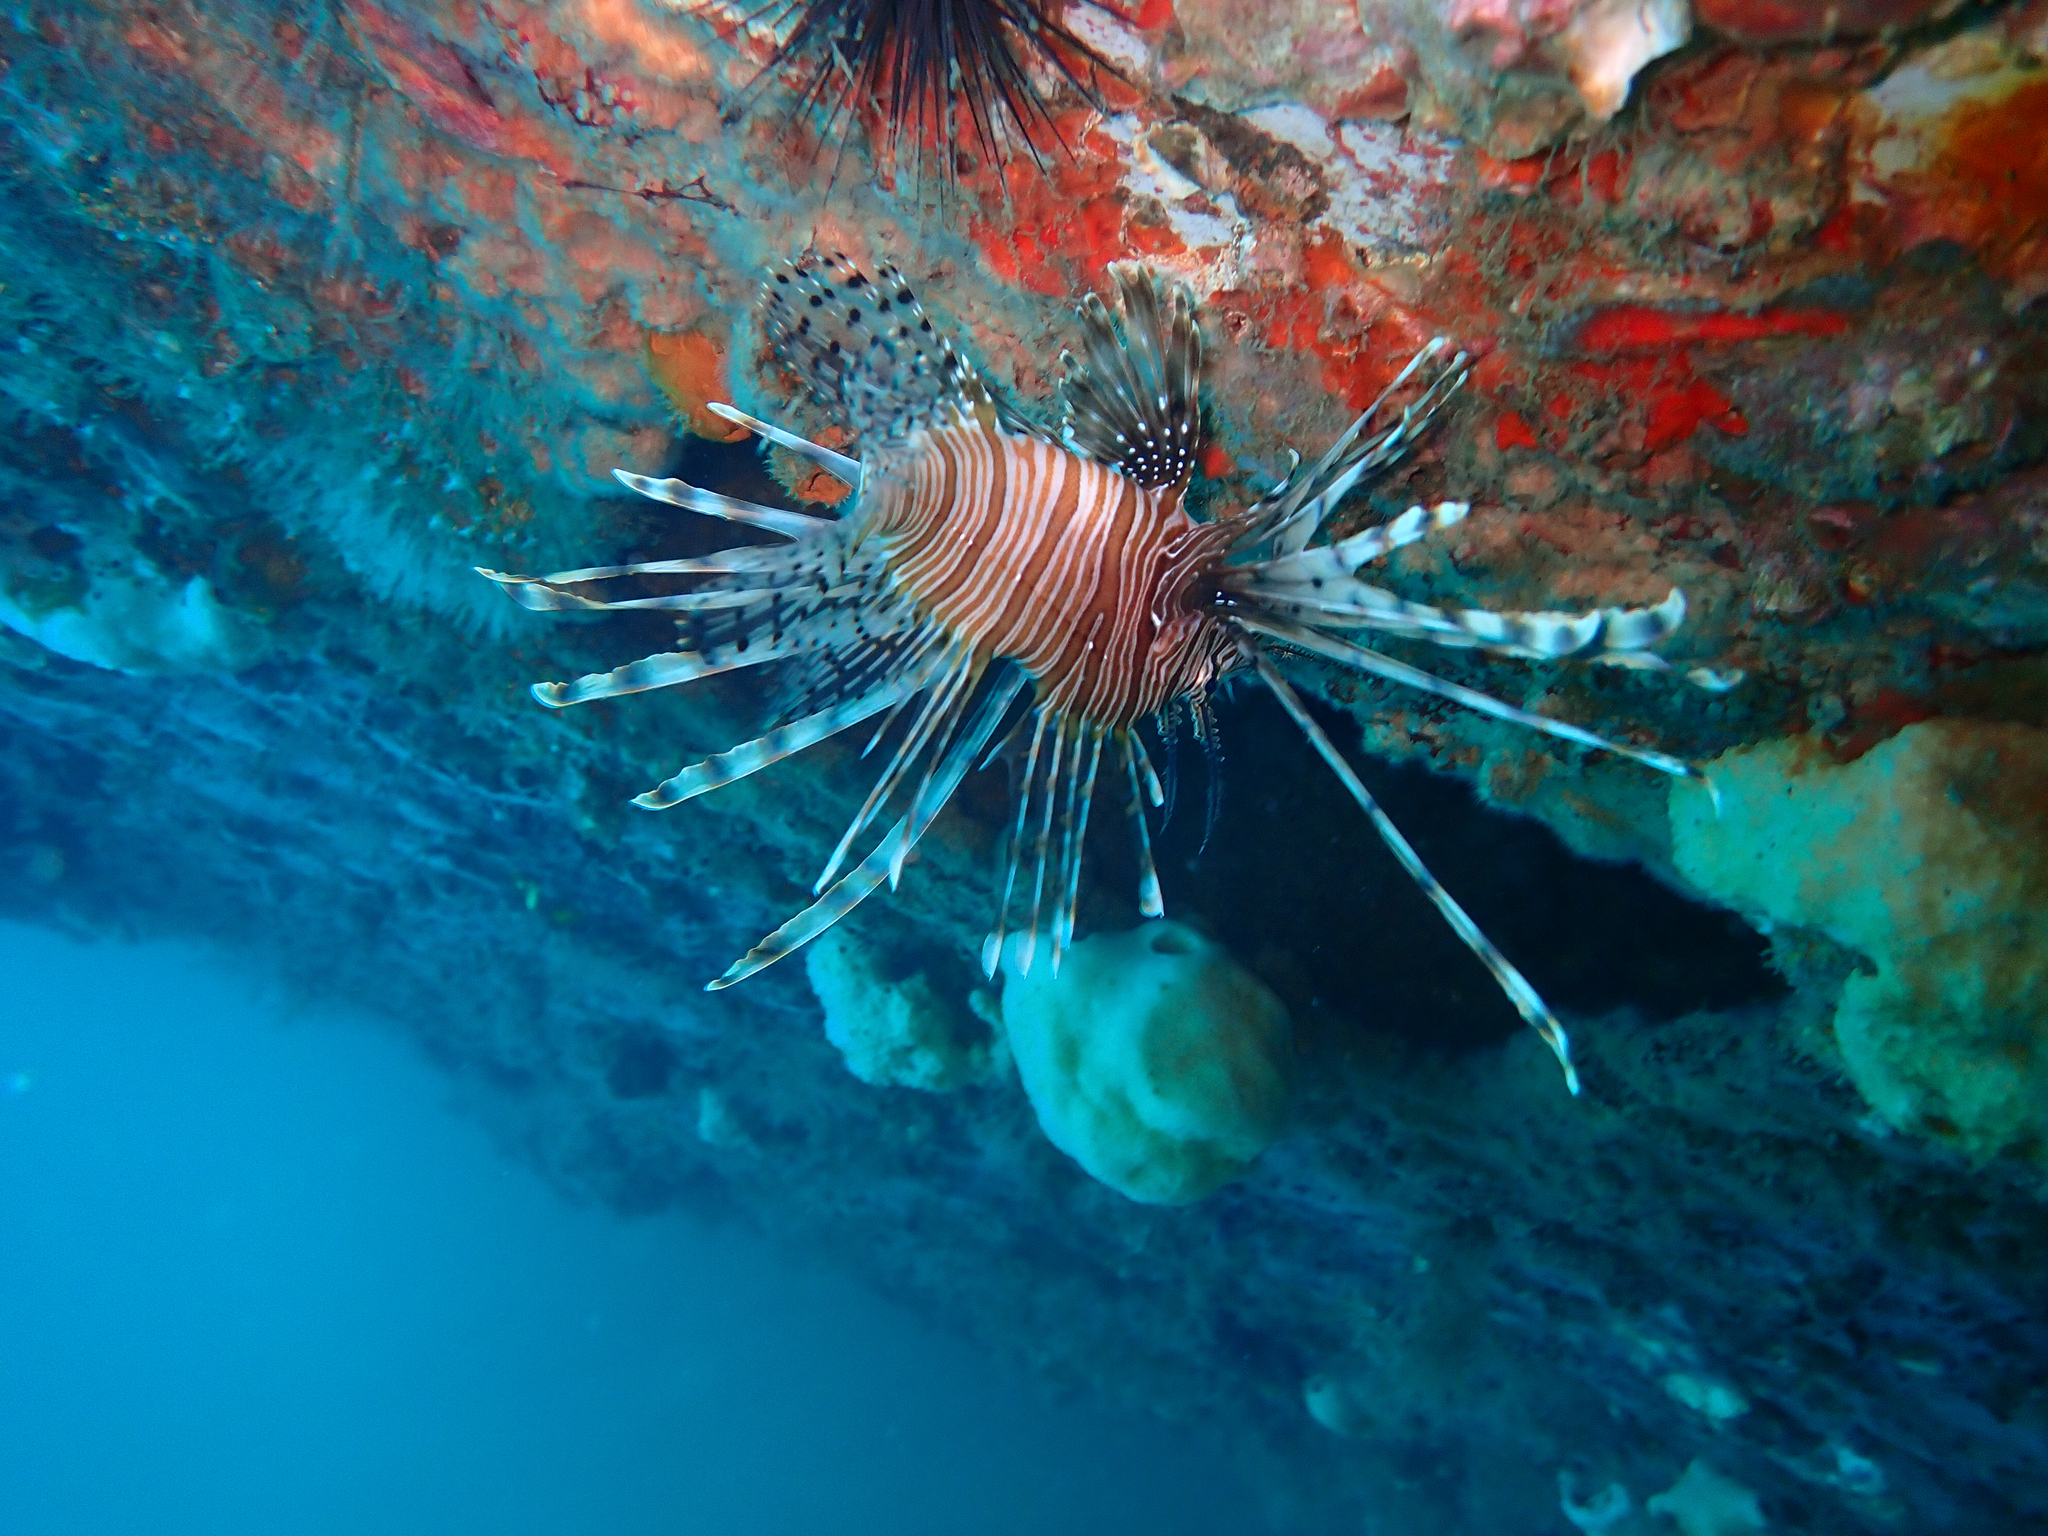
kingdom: Animalia
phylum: Chordata
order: Scorpaeniformes
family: Scorpaenidae
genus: Pterois
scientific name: Pterois volitans
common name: Lionfish
